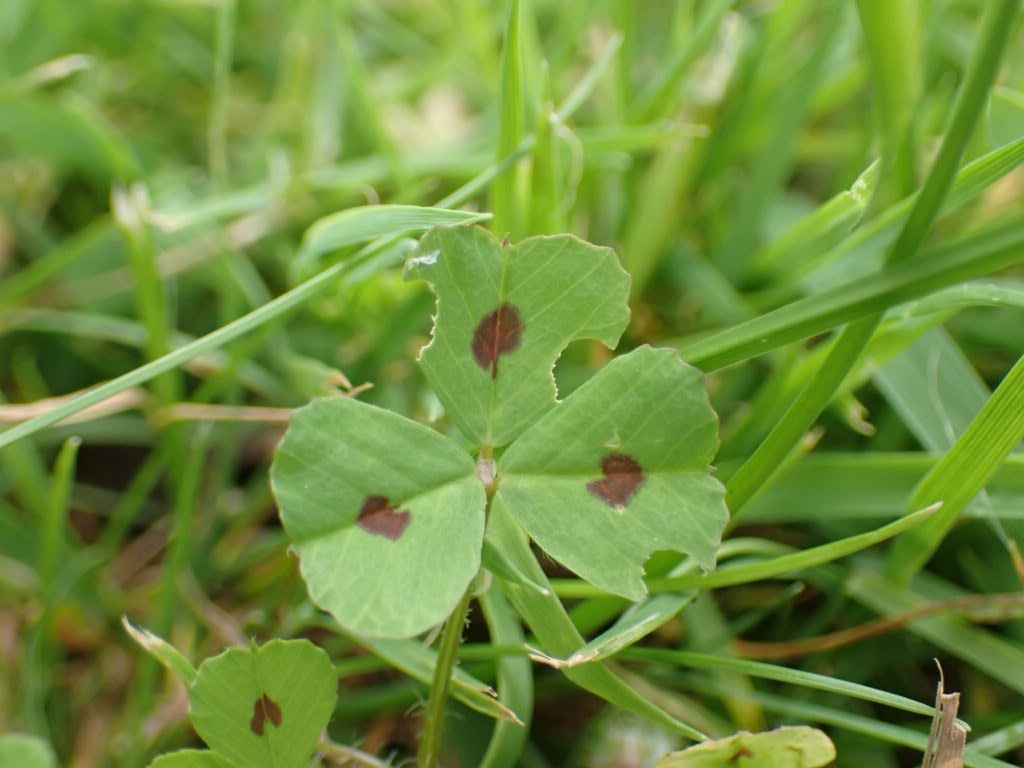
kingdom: Plantae
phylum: Tracheophyta
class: Magnoliopsida
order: Fabales
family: Fabaceae
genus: Medicago
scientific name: Medicago arabica
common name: Spotted medick
